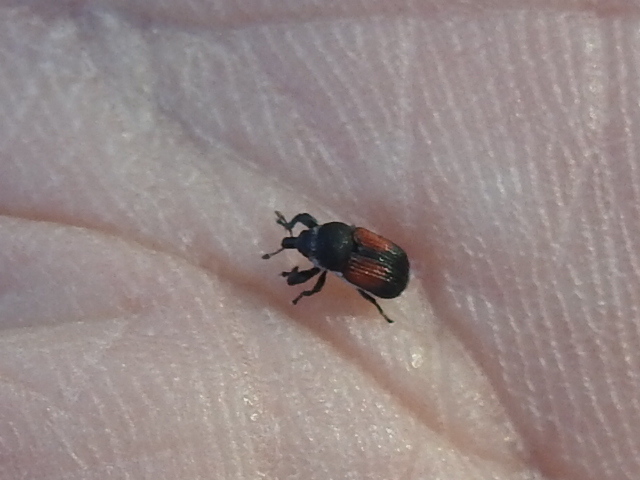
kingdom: Animalia
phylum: Arthropoda
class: Insecta
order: Coleoptera
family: Curculionidae
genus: Laemosaccus
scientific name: Laemosaccus burkei
